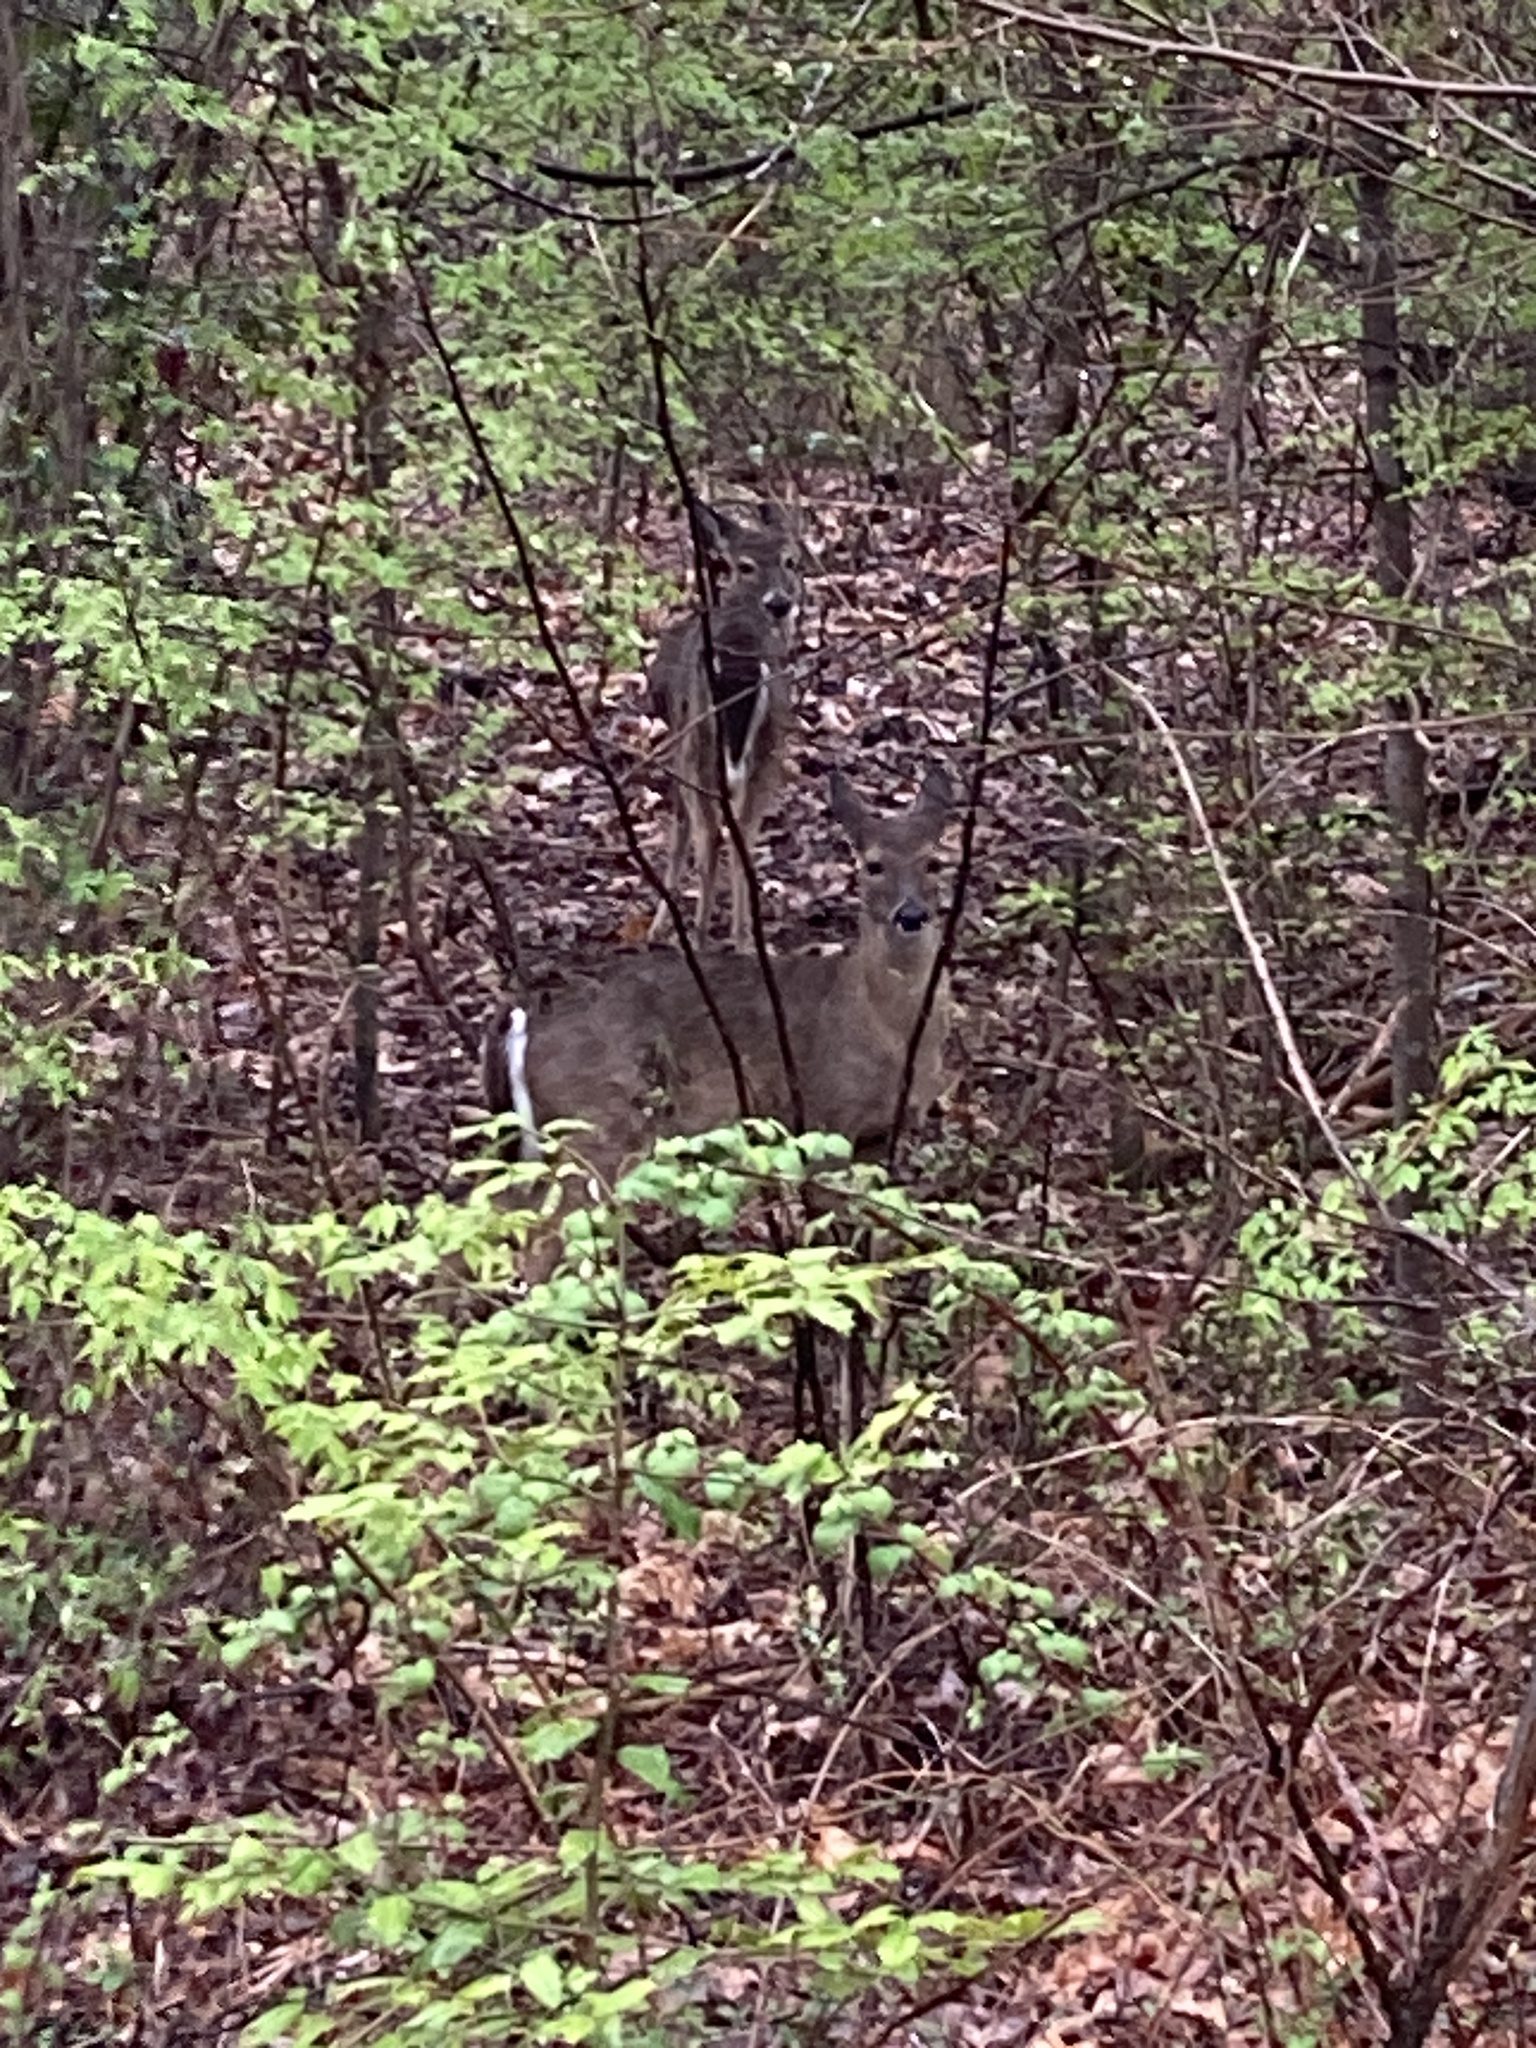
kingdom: Animalia
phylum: Chordata
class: Mammalia
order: Artiodactyla
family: Cervidae
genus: Odocoileus
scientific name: Odocoileus virginianus
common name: White-tailed deer
